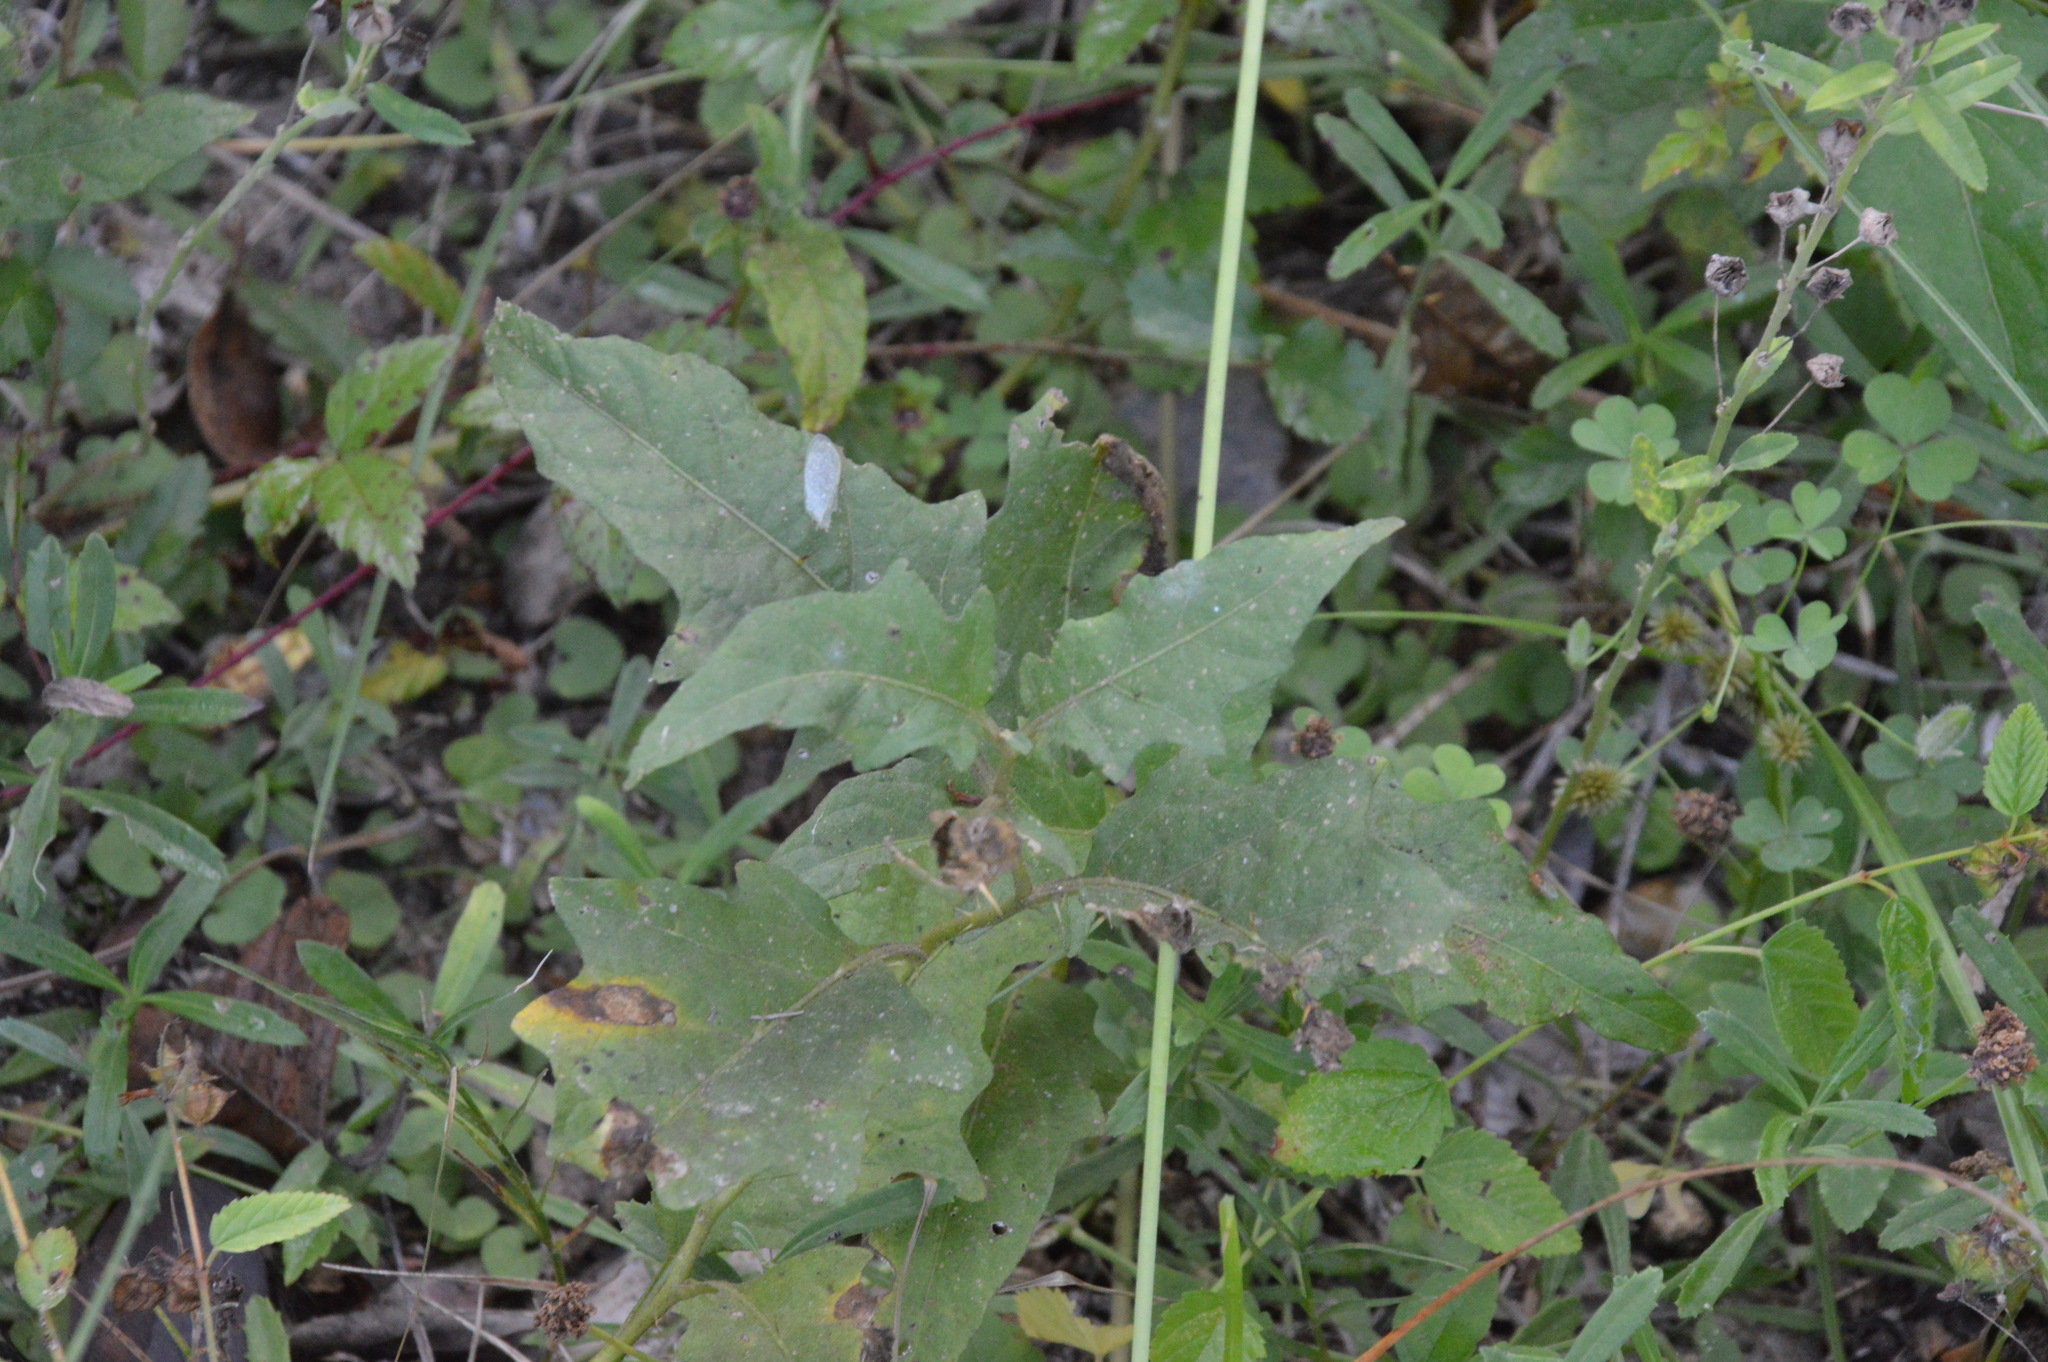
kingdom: Plantae
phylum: Tracheophyta
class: Magnoliopsida
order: Solanales
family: Solanaceae
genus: Solanum
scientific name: Solanum carolinense
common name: Horse-nettle
